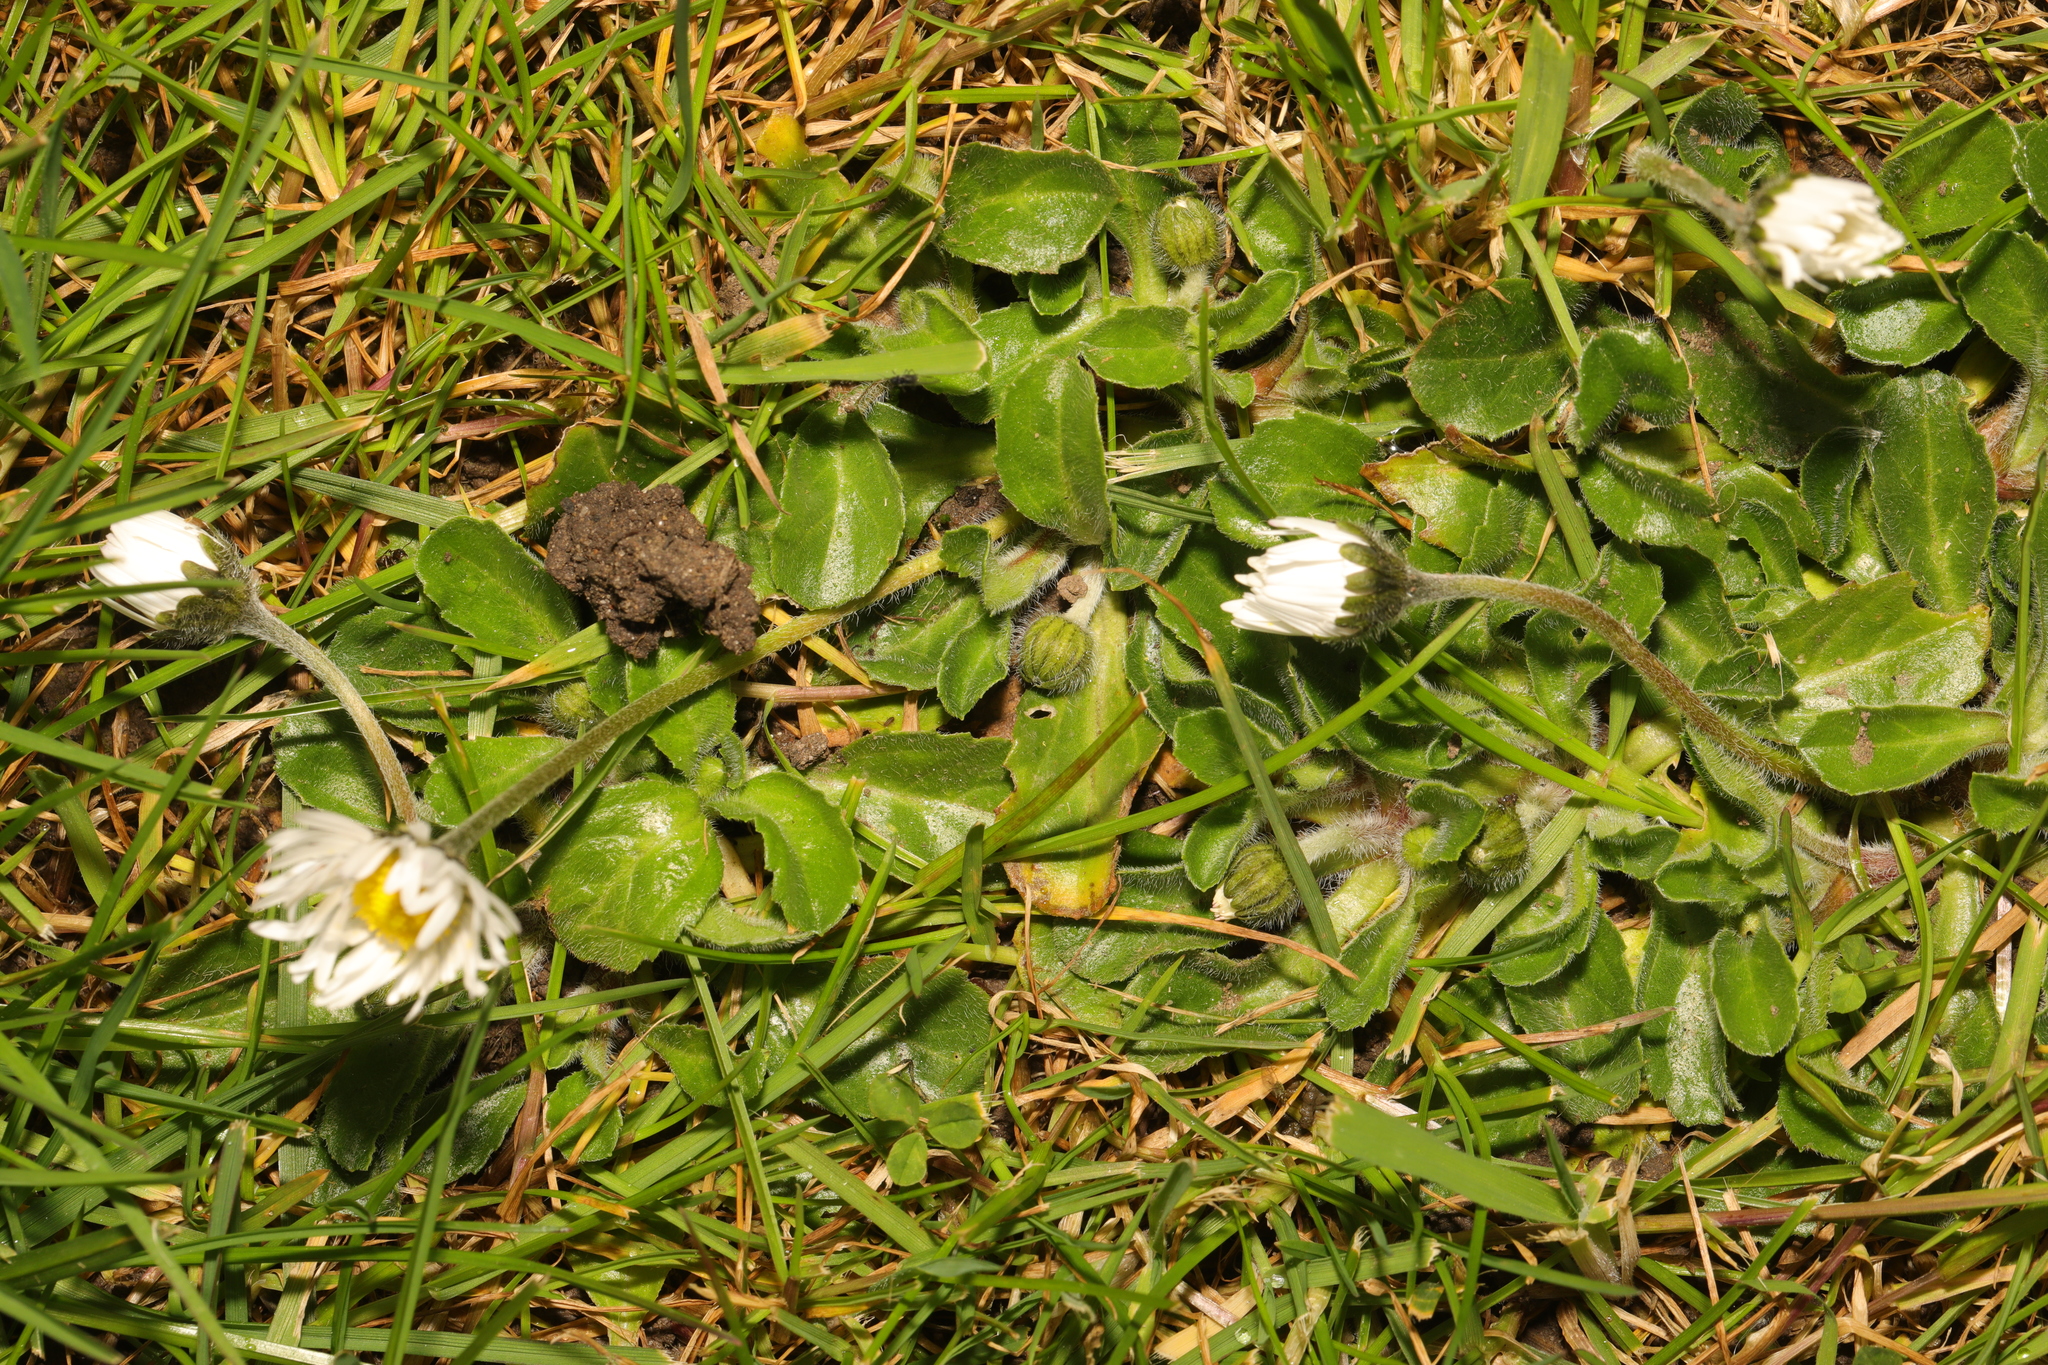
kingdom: Plantae
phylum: Tracheophyta
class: Magnoliopsida
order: Asterales
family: Asteraceae
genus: Bellis
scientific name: Bellis perennis
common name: Lawndaisy
